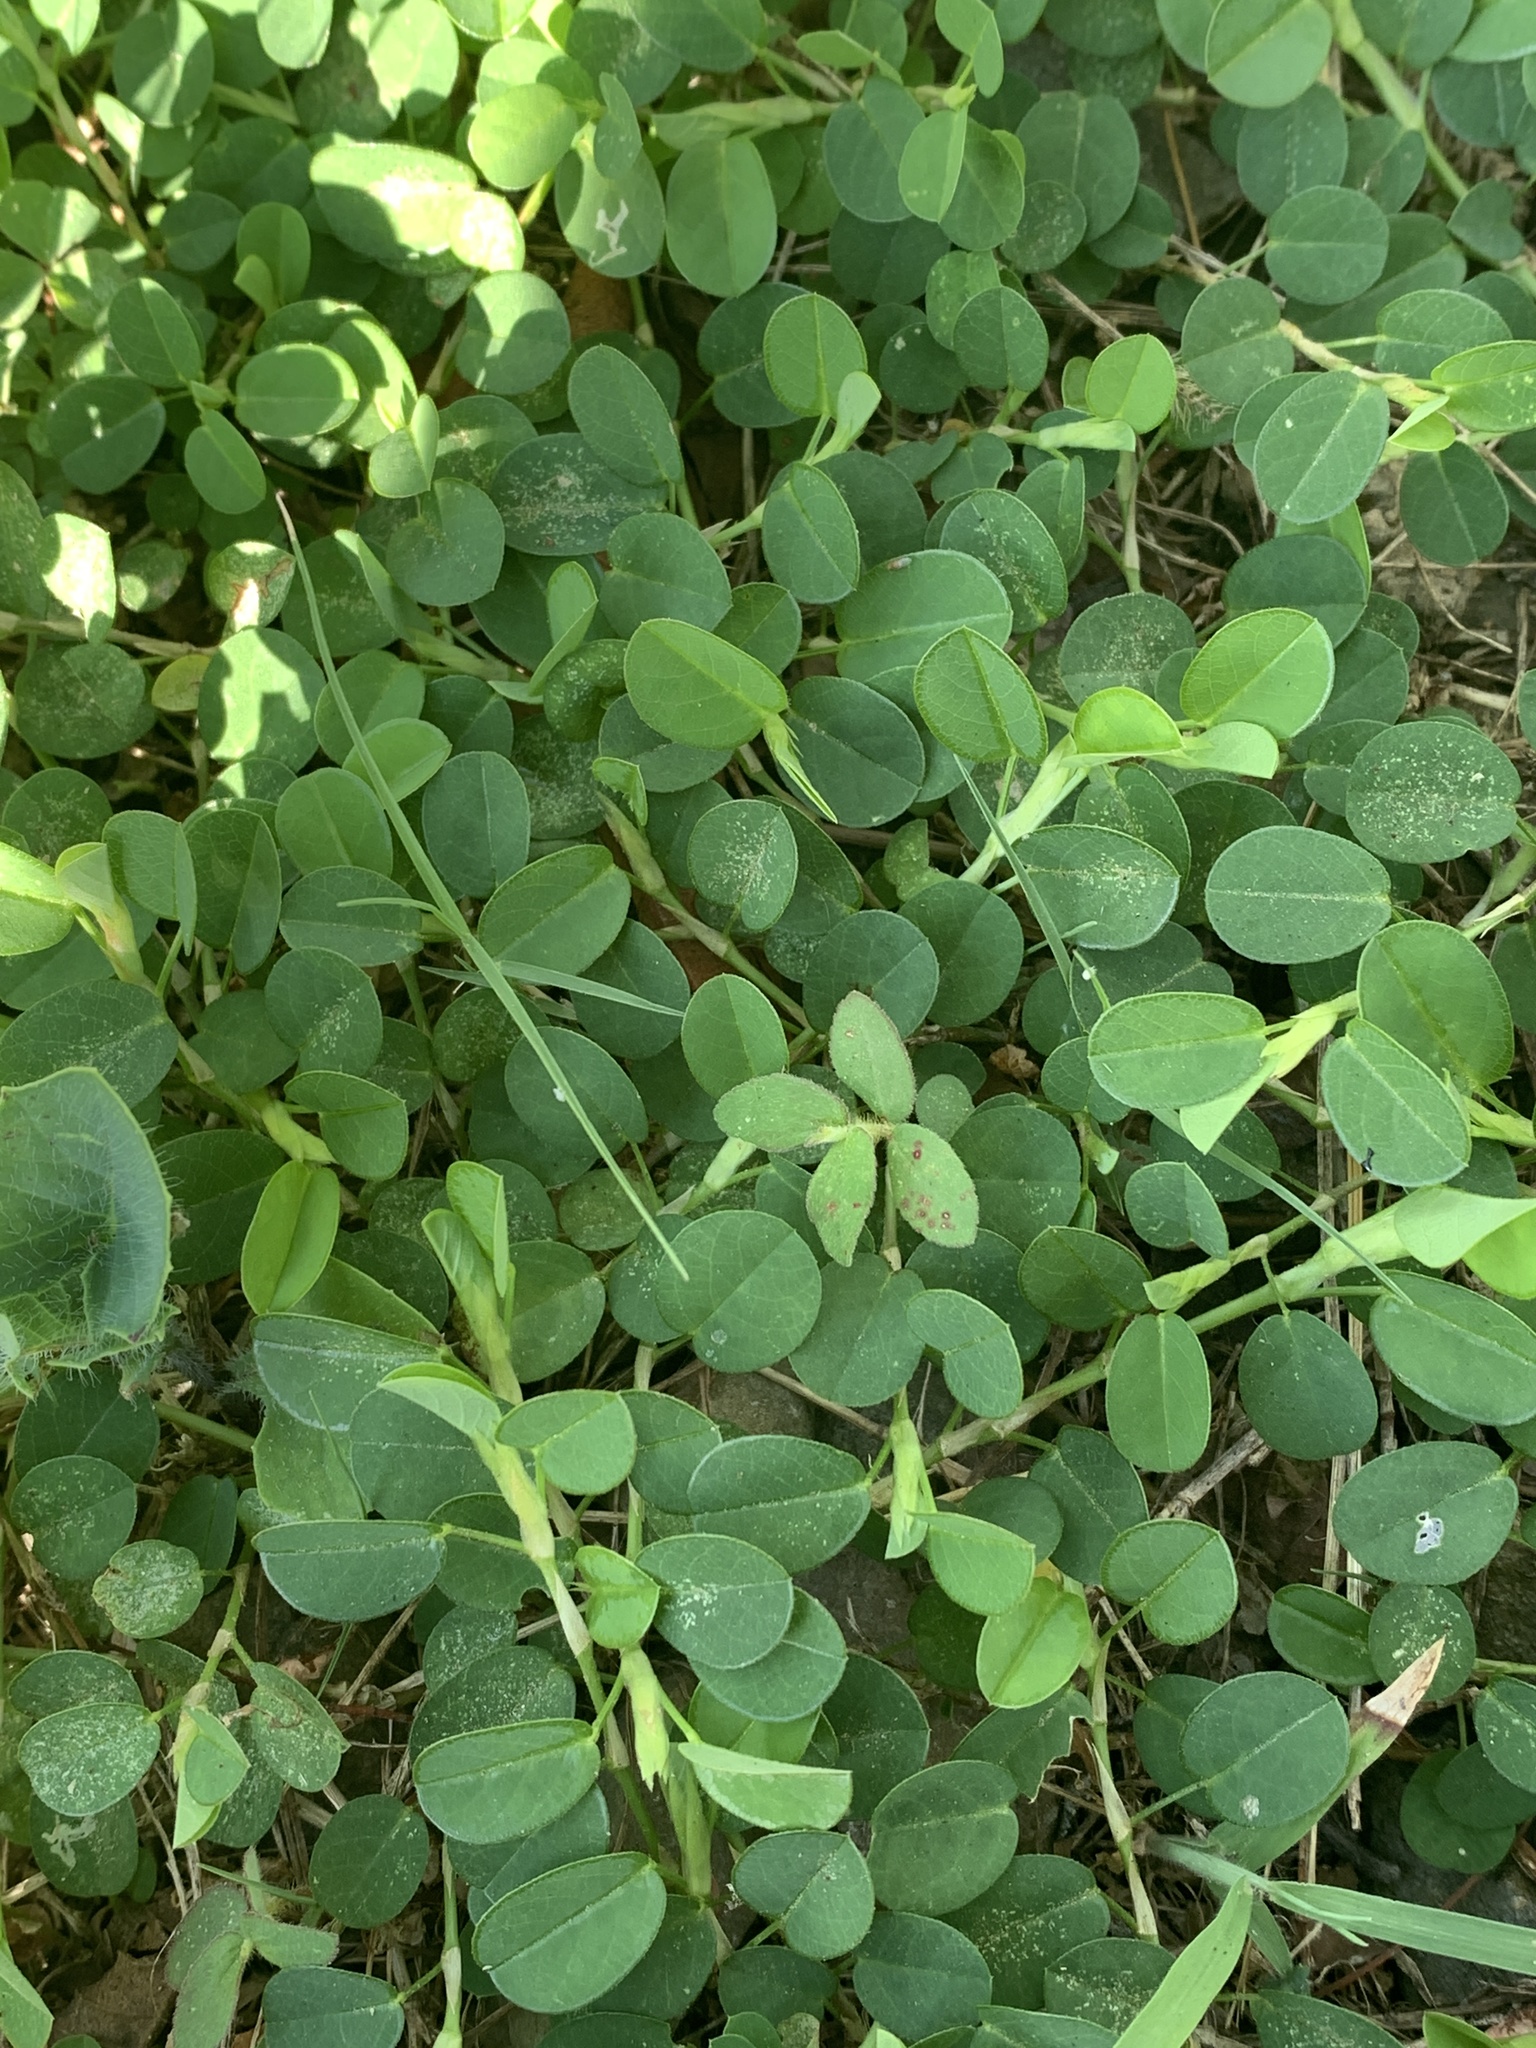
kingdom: Plantae
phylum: Tracheophyta
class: Magnoliopsida
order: Fabales
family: Fabaceae
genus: Alysicarpus
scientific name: Alysicarpus vaginalis
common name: White moneywort
